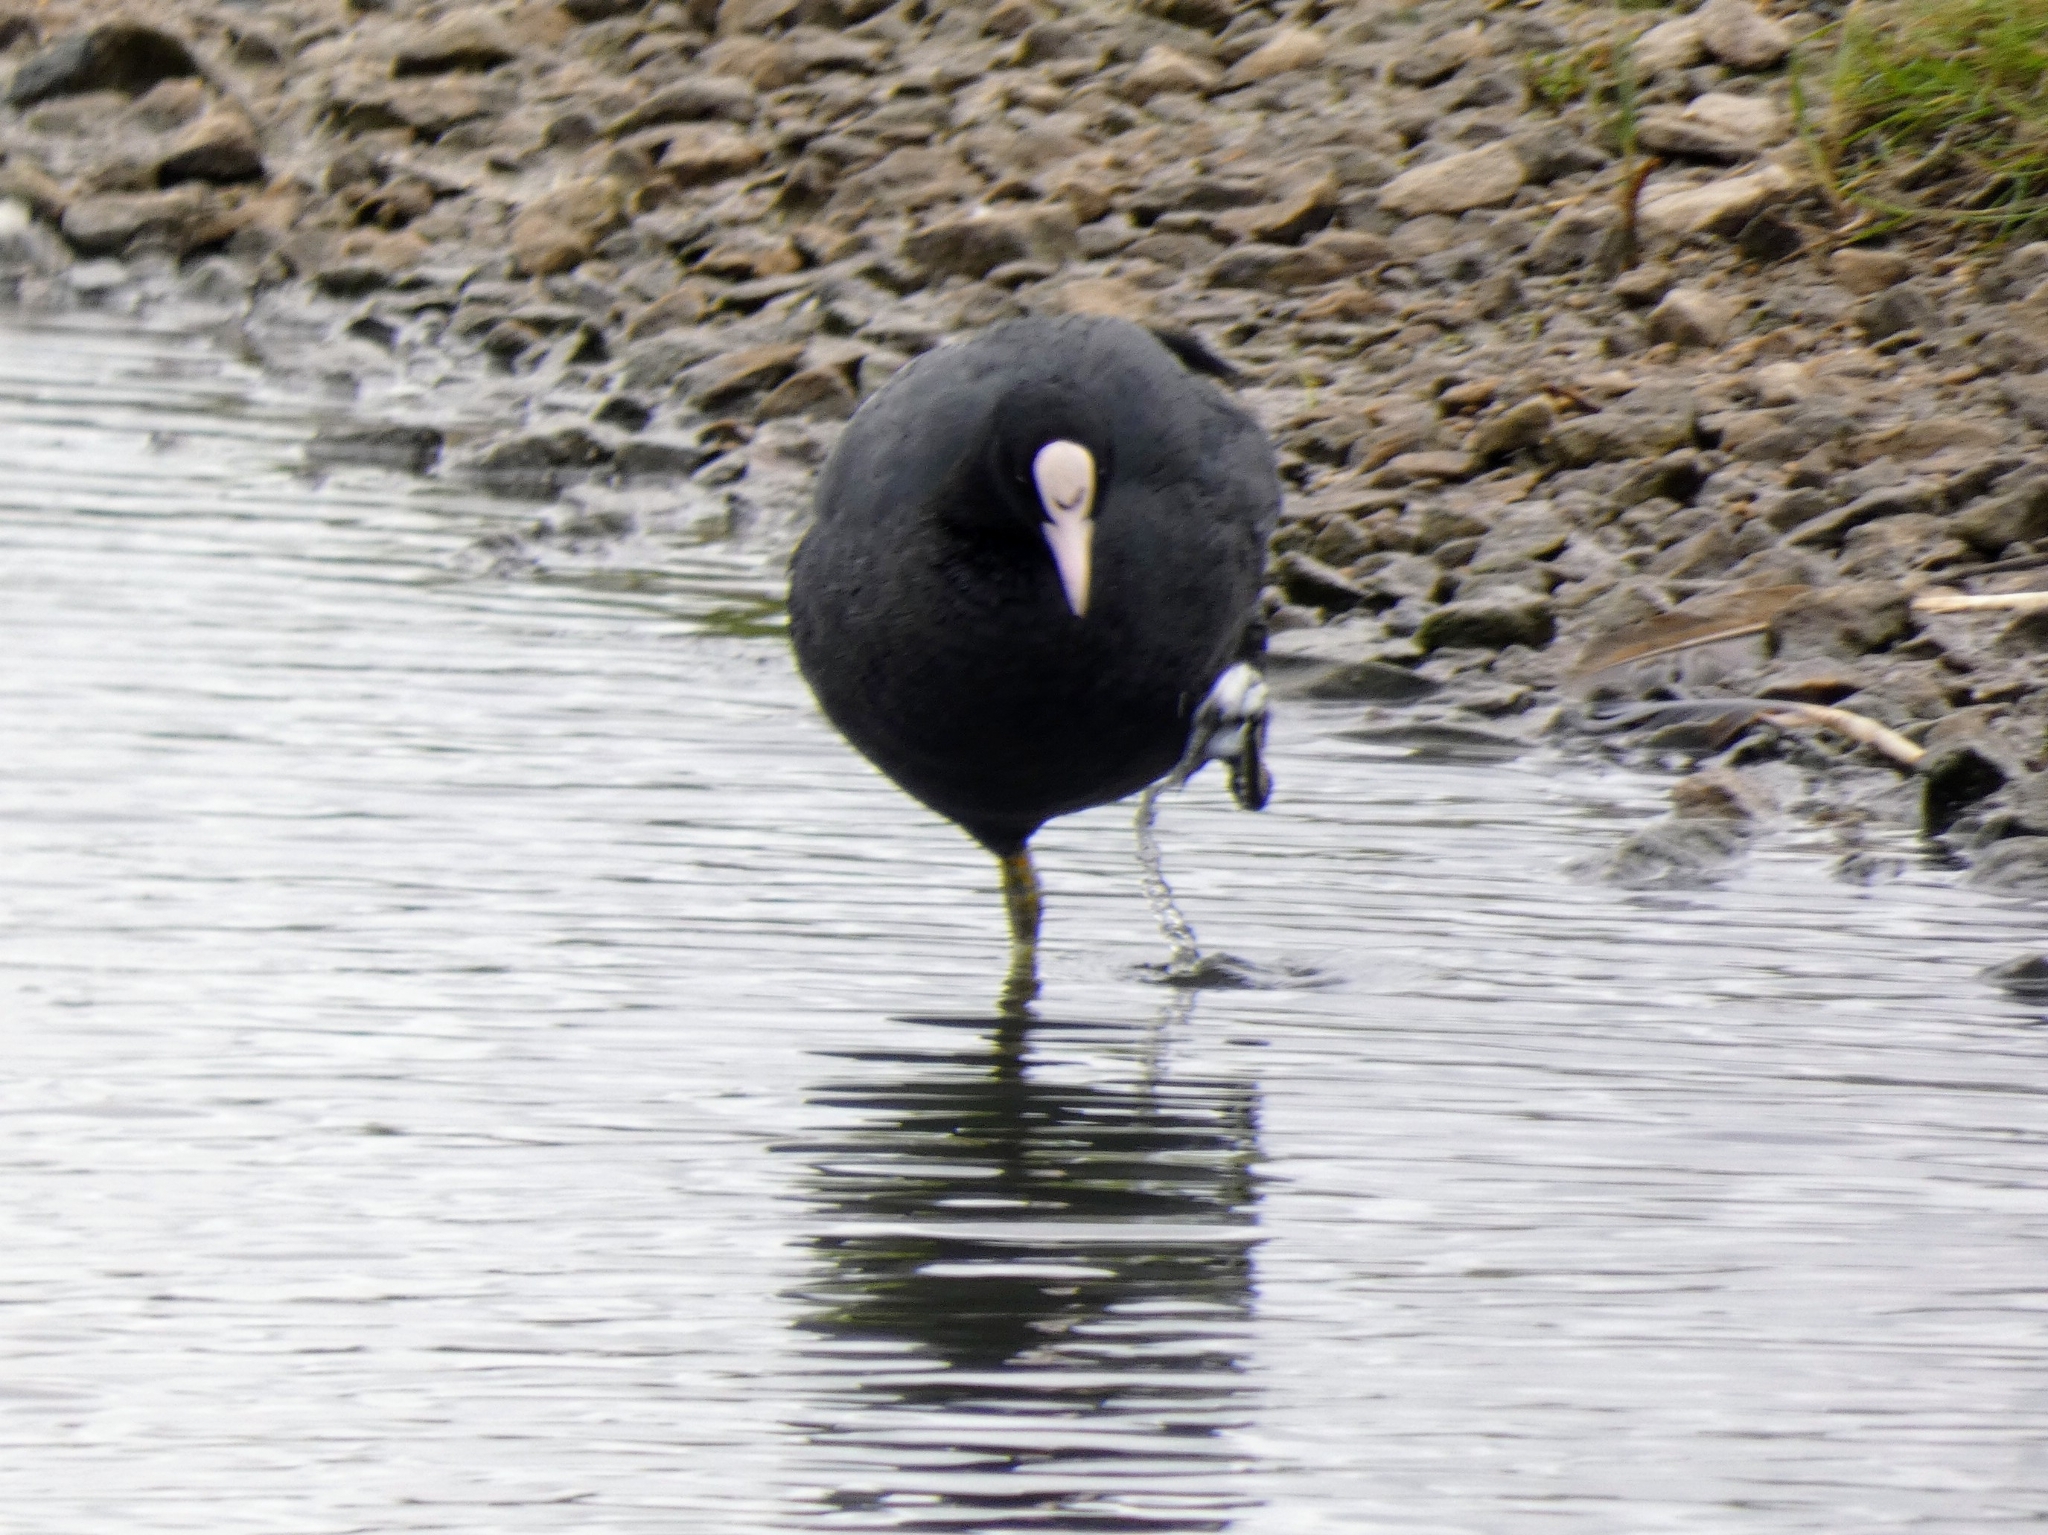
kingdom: Animalia
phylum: Chordata
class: Aves
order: Gruiformes
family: Rallidae
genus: Fulica
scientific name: Fulica atra
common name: Eurasian coot
